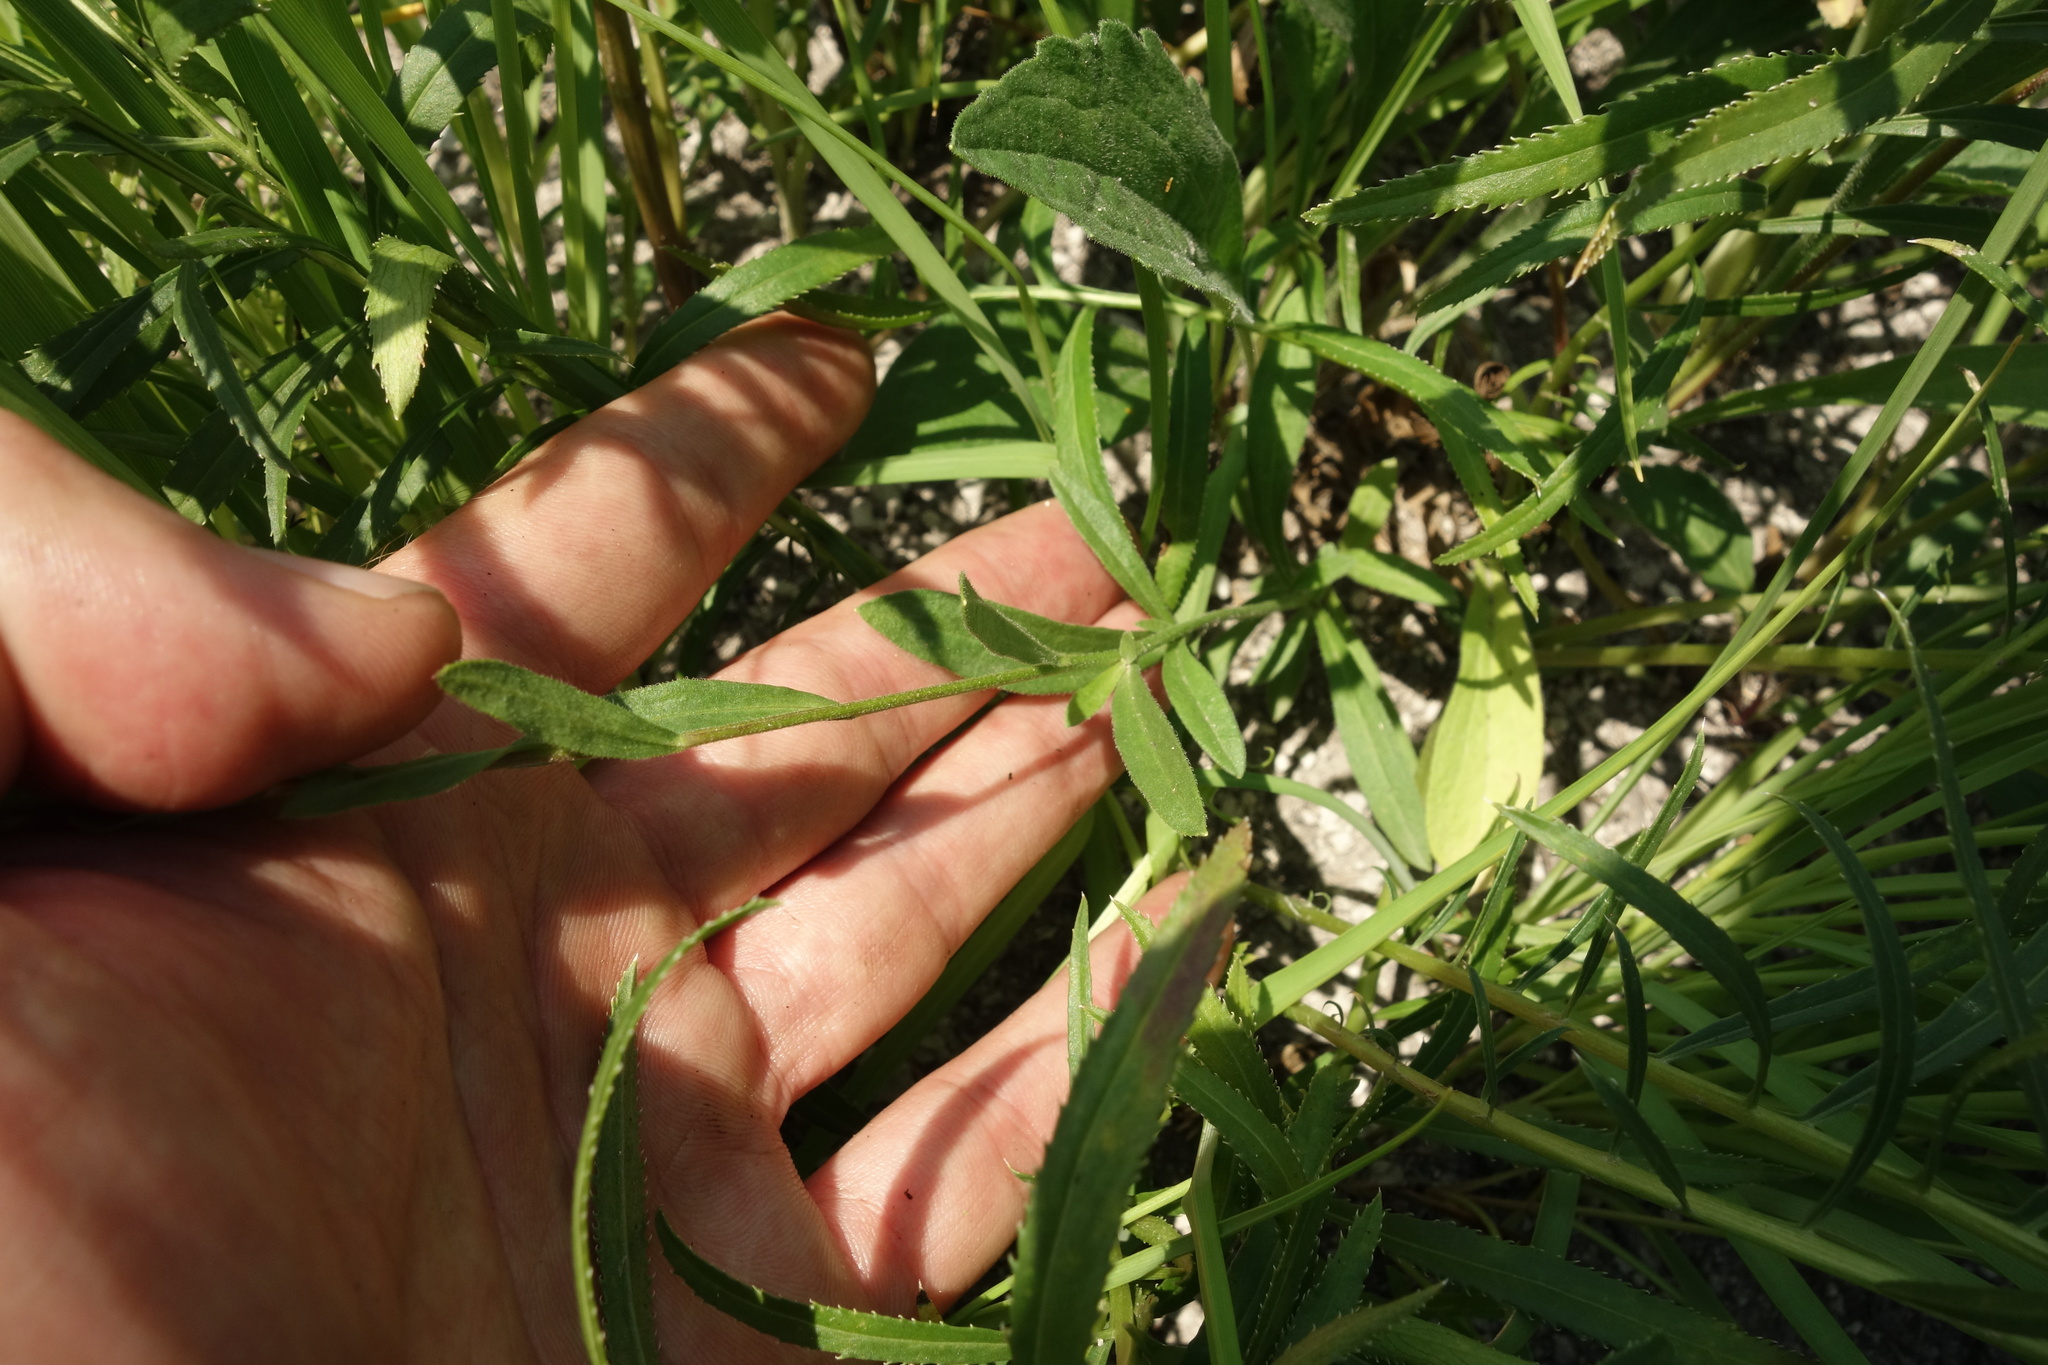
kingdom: Plantae
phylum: Tracheophyta
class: Magnoliopsida
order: Asterales
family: Asteraceae
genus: Aster
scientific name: Aster amellus
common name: European michaelmas daisy
